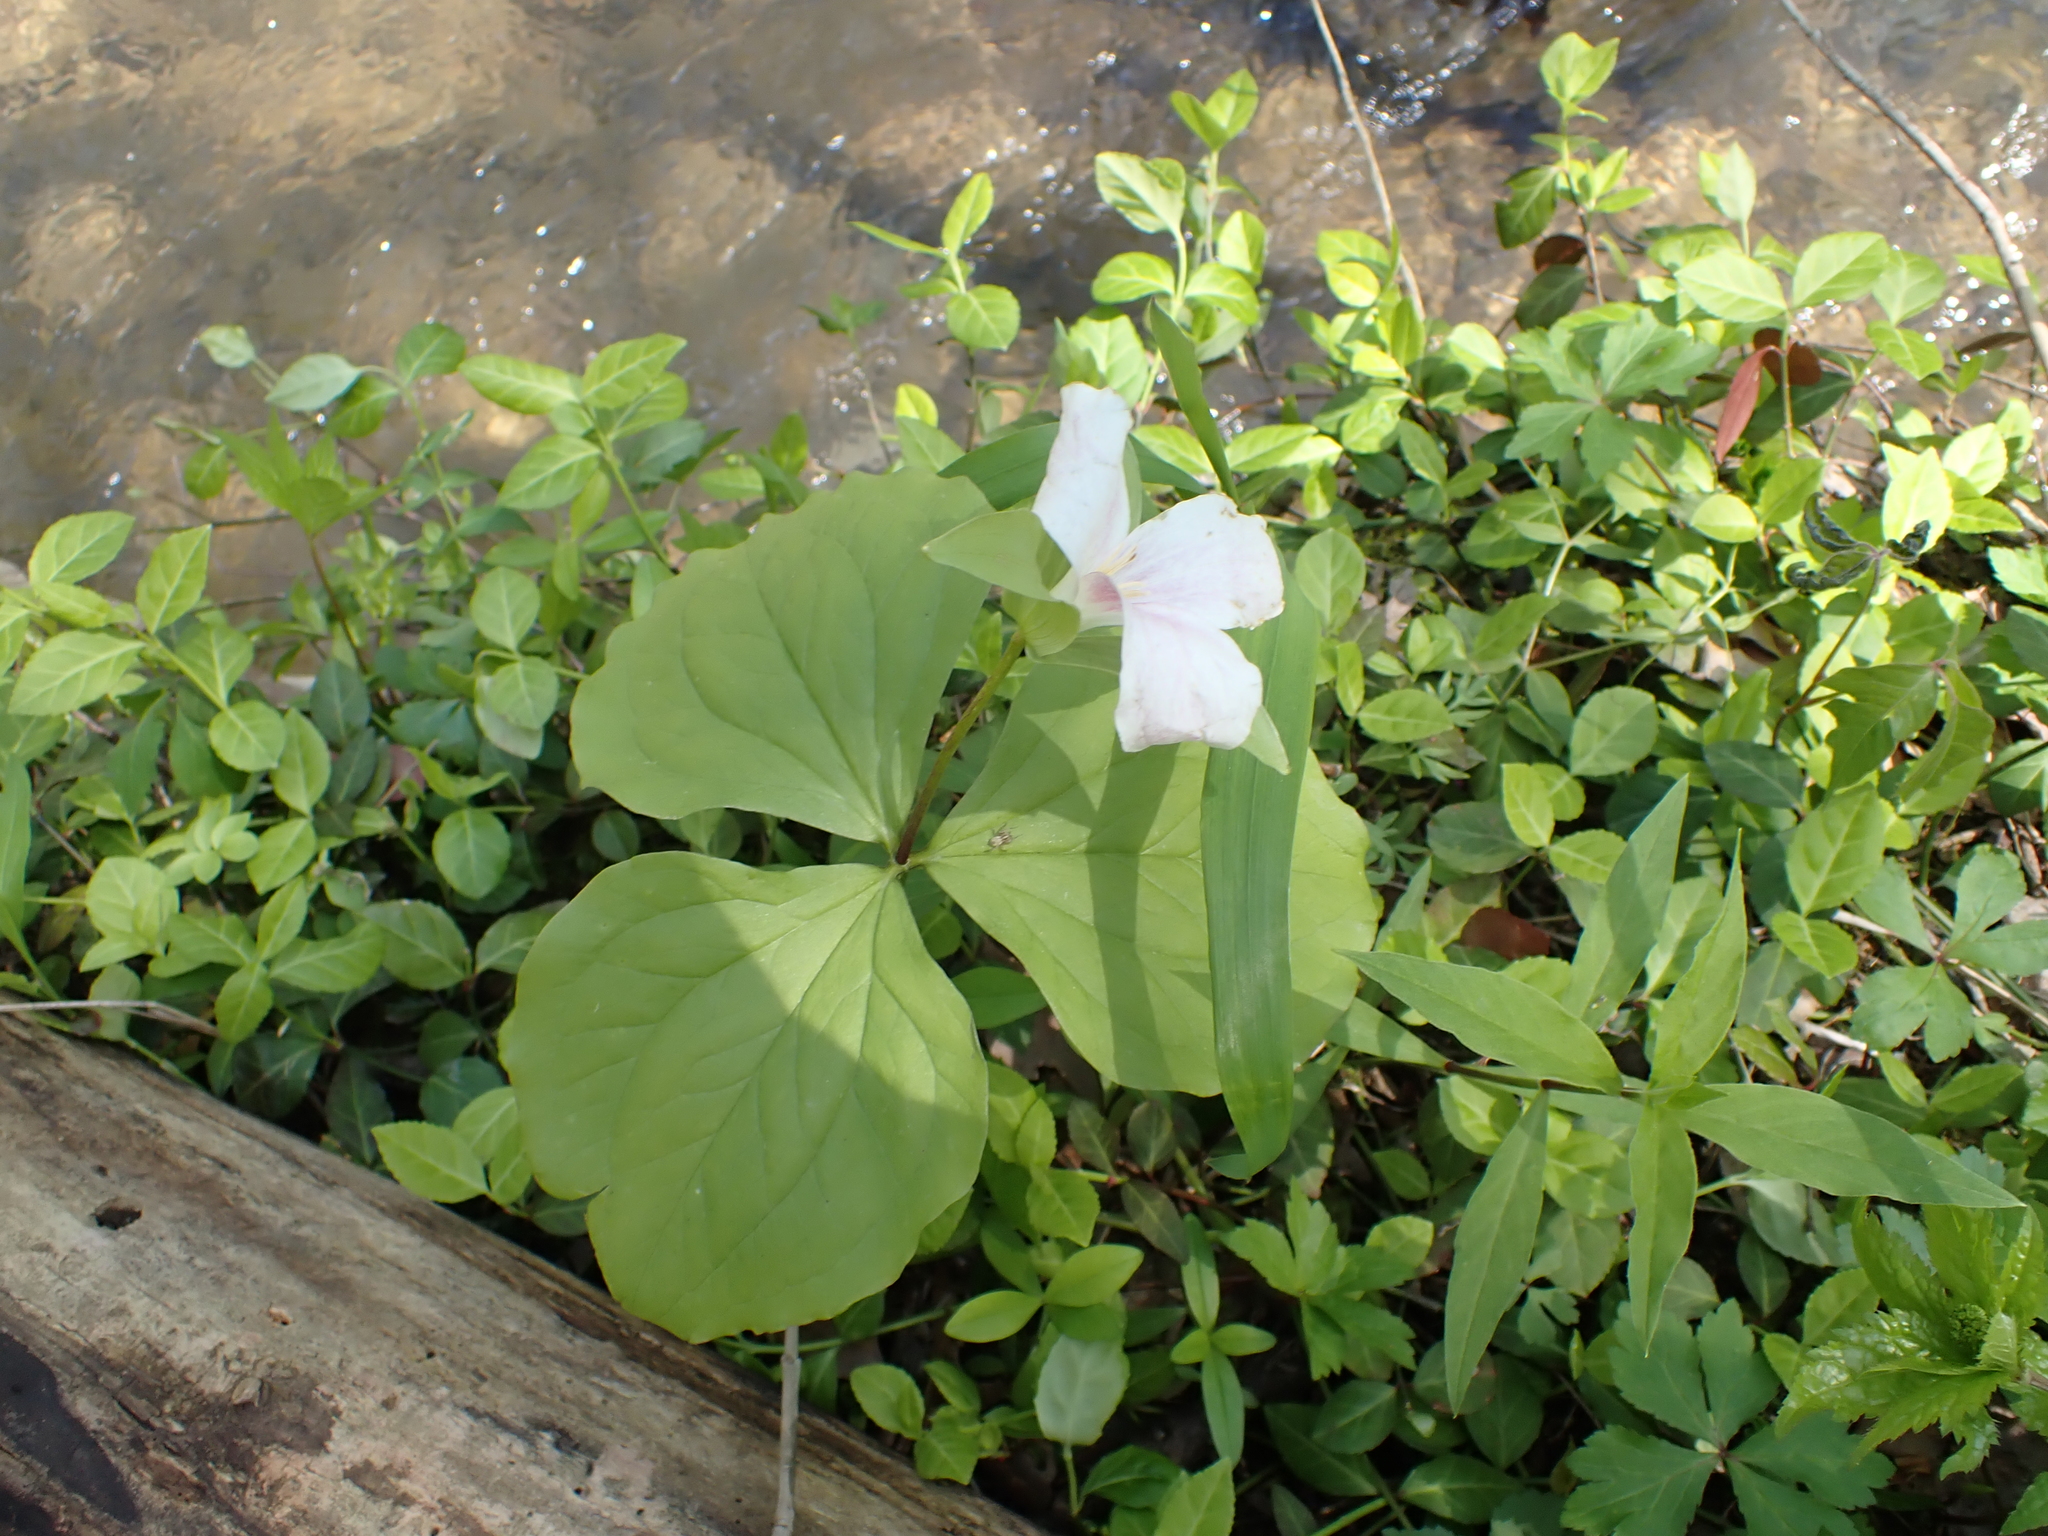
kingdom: Plantae
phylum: Tracheophyta
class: Liliopsida
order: Liliales
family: Melanthiaceae
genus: Trillium
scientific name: Trillium grandiflorum
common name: Great white trillium
